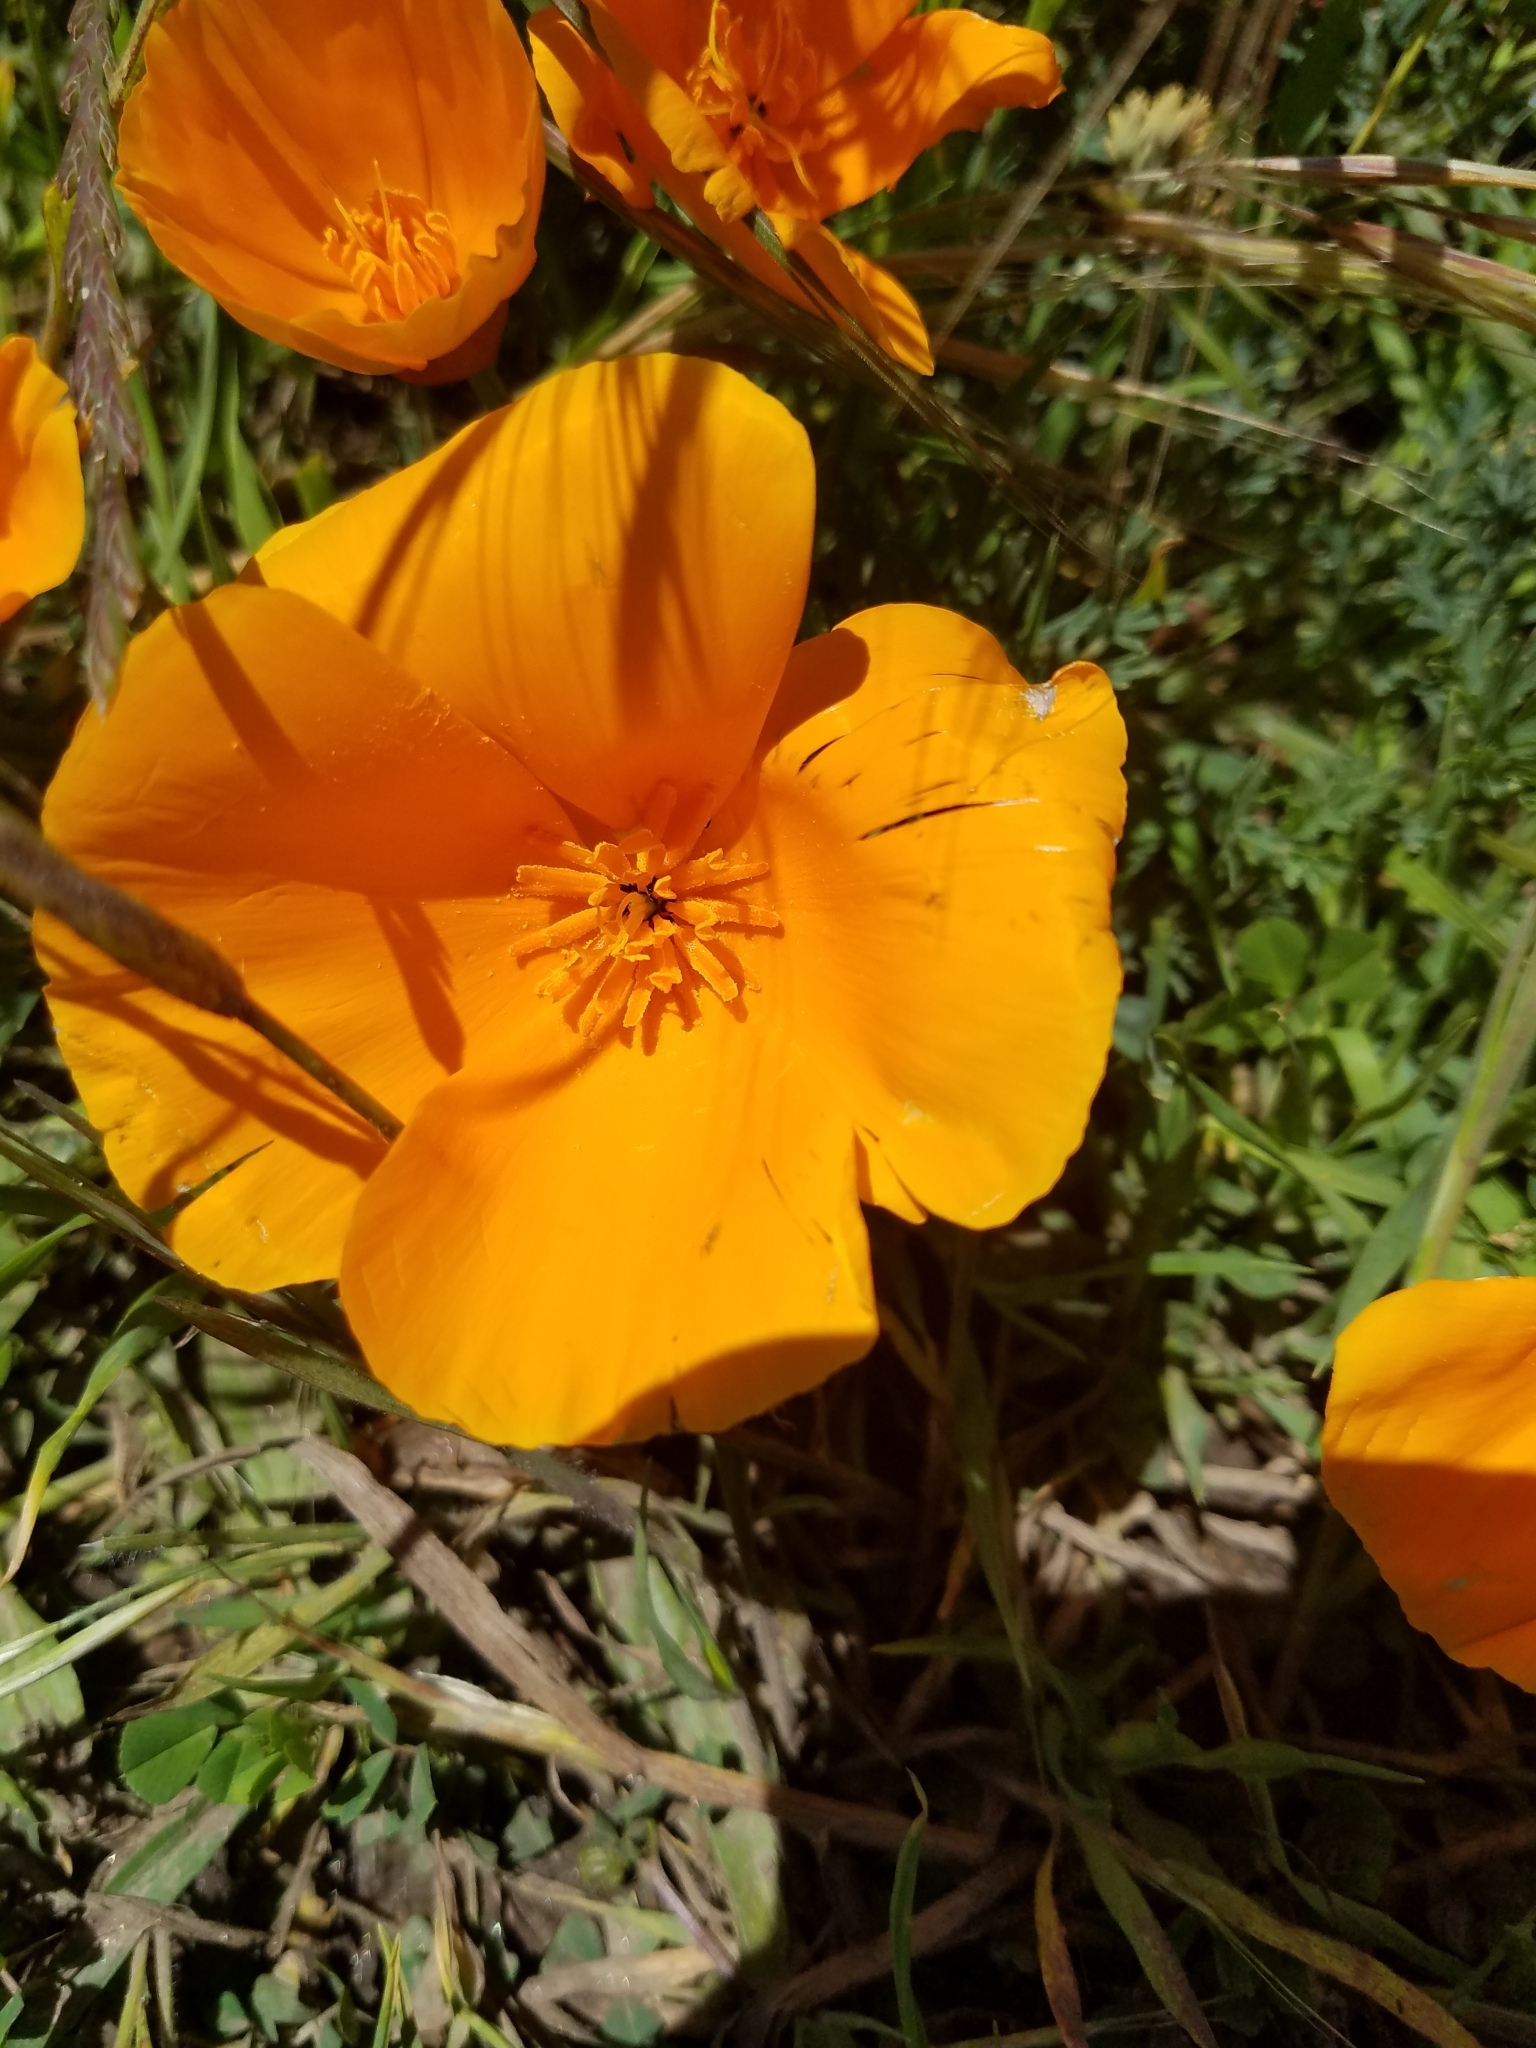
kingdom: Plantae
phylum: Tracheophyta
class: Magnoliopsida
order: Ranunculales
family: Papaveraceae
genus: Eschscholzia
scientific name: Eschscholzia californica
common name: California poppy
